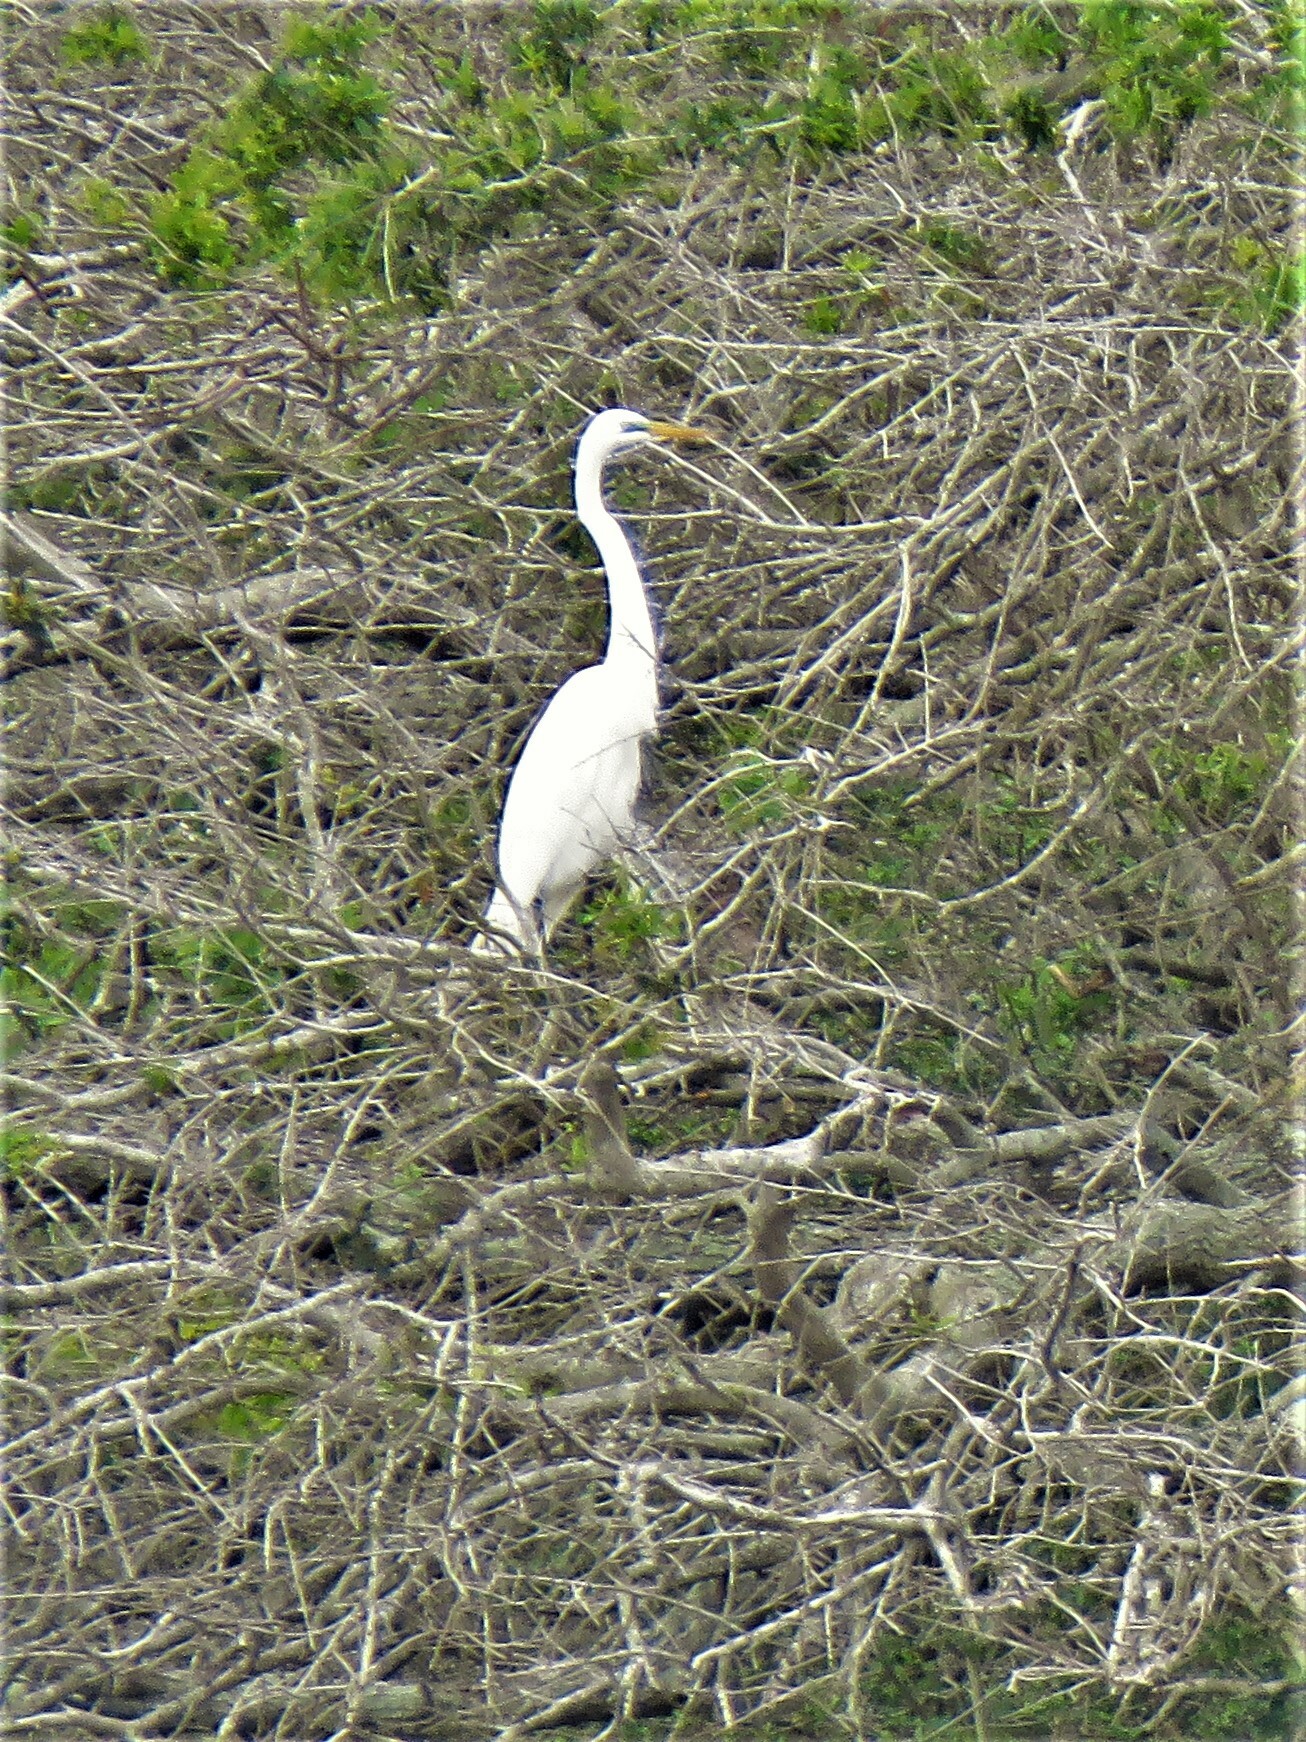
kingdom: Animalia
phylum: Chordata
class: Aves
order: Pelecaniformes
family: Ardeidae
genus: Ardea
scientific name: Ardea alba
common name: Great egret
